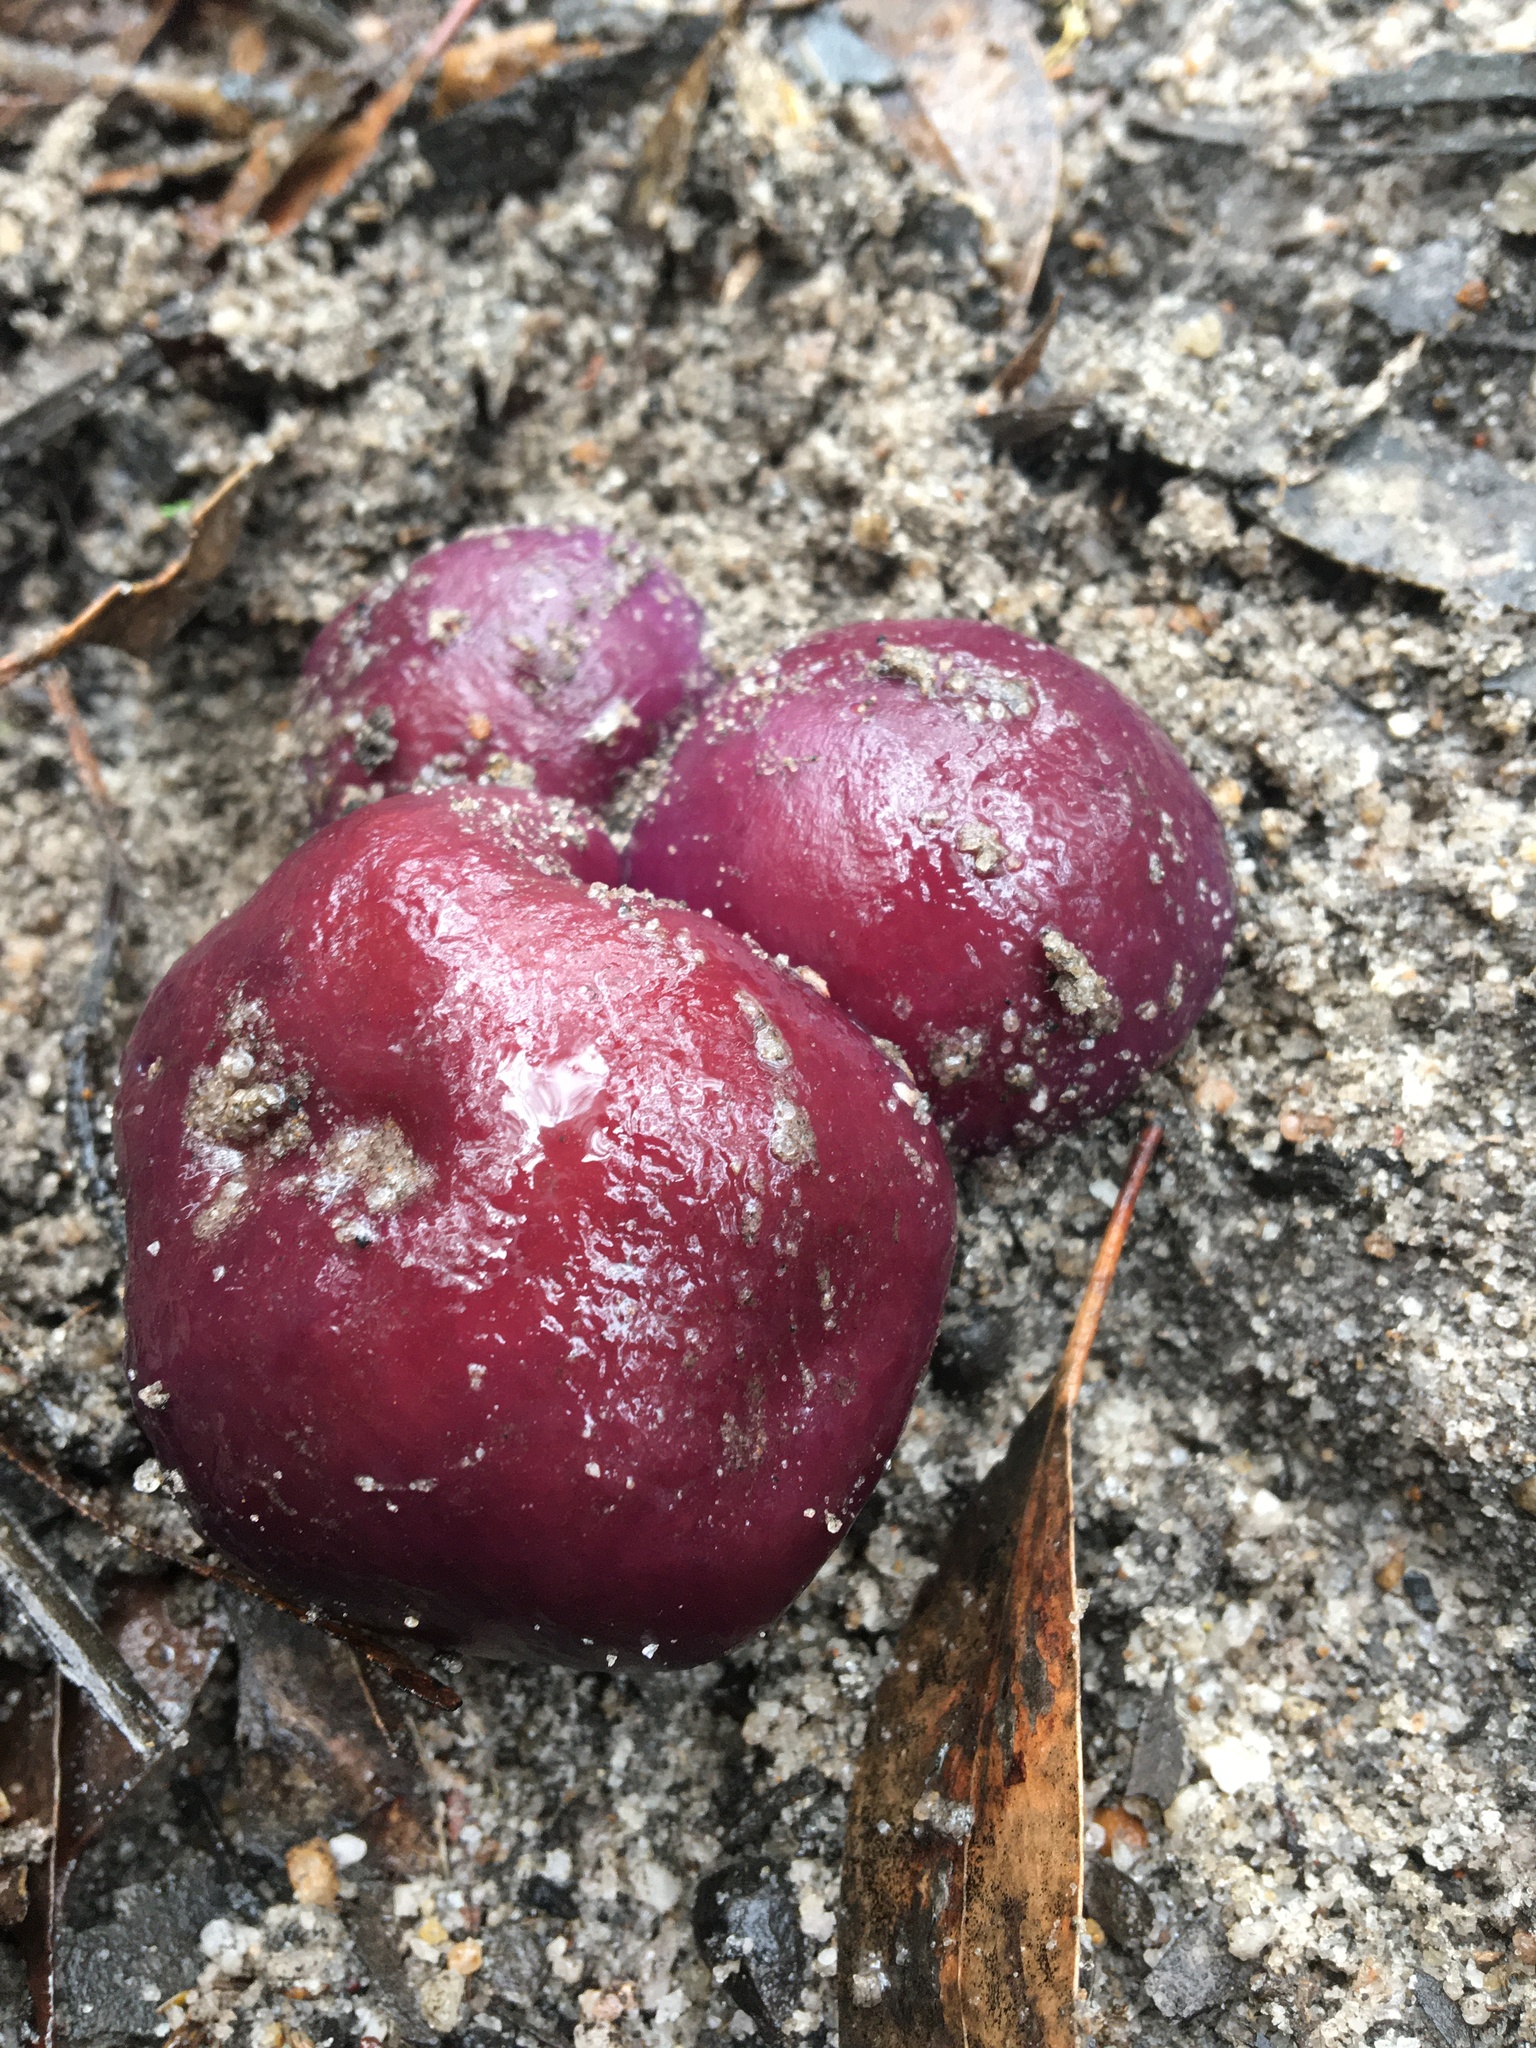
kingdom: Fungi
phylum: Basidiomycota
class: Agaricomycetes
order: Agaricales
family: Cortinariaceae
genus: Cortinarius
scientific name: Cortinarius archeri
